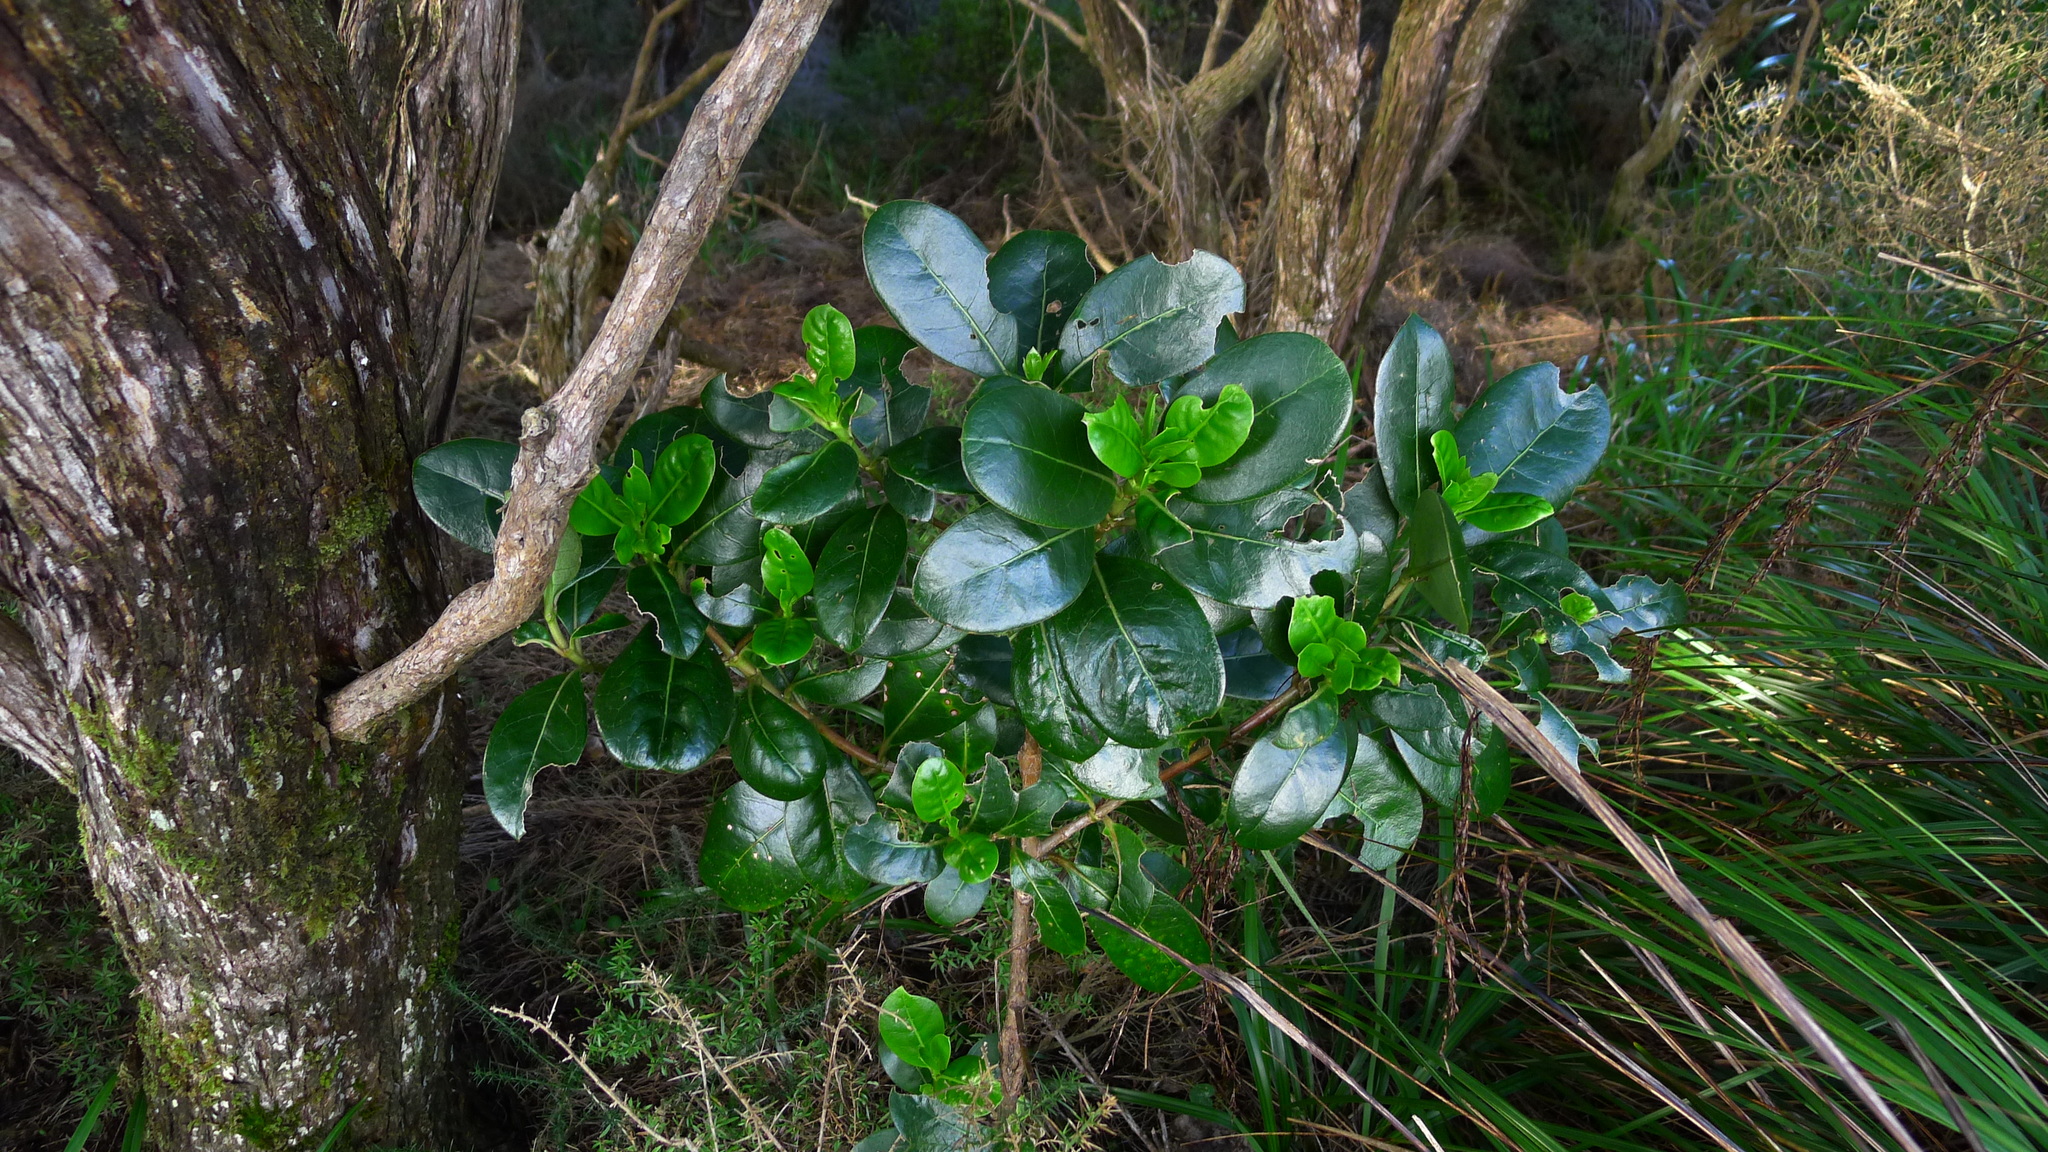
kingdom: Plantae
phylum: Tracheophyta
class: Magnoliopsida
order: Gentianales
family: Rubiaceae
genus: Coprosma
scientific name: Coprosma lucida
